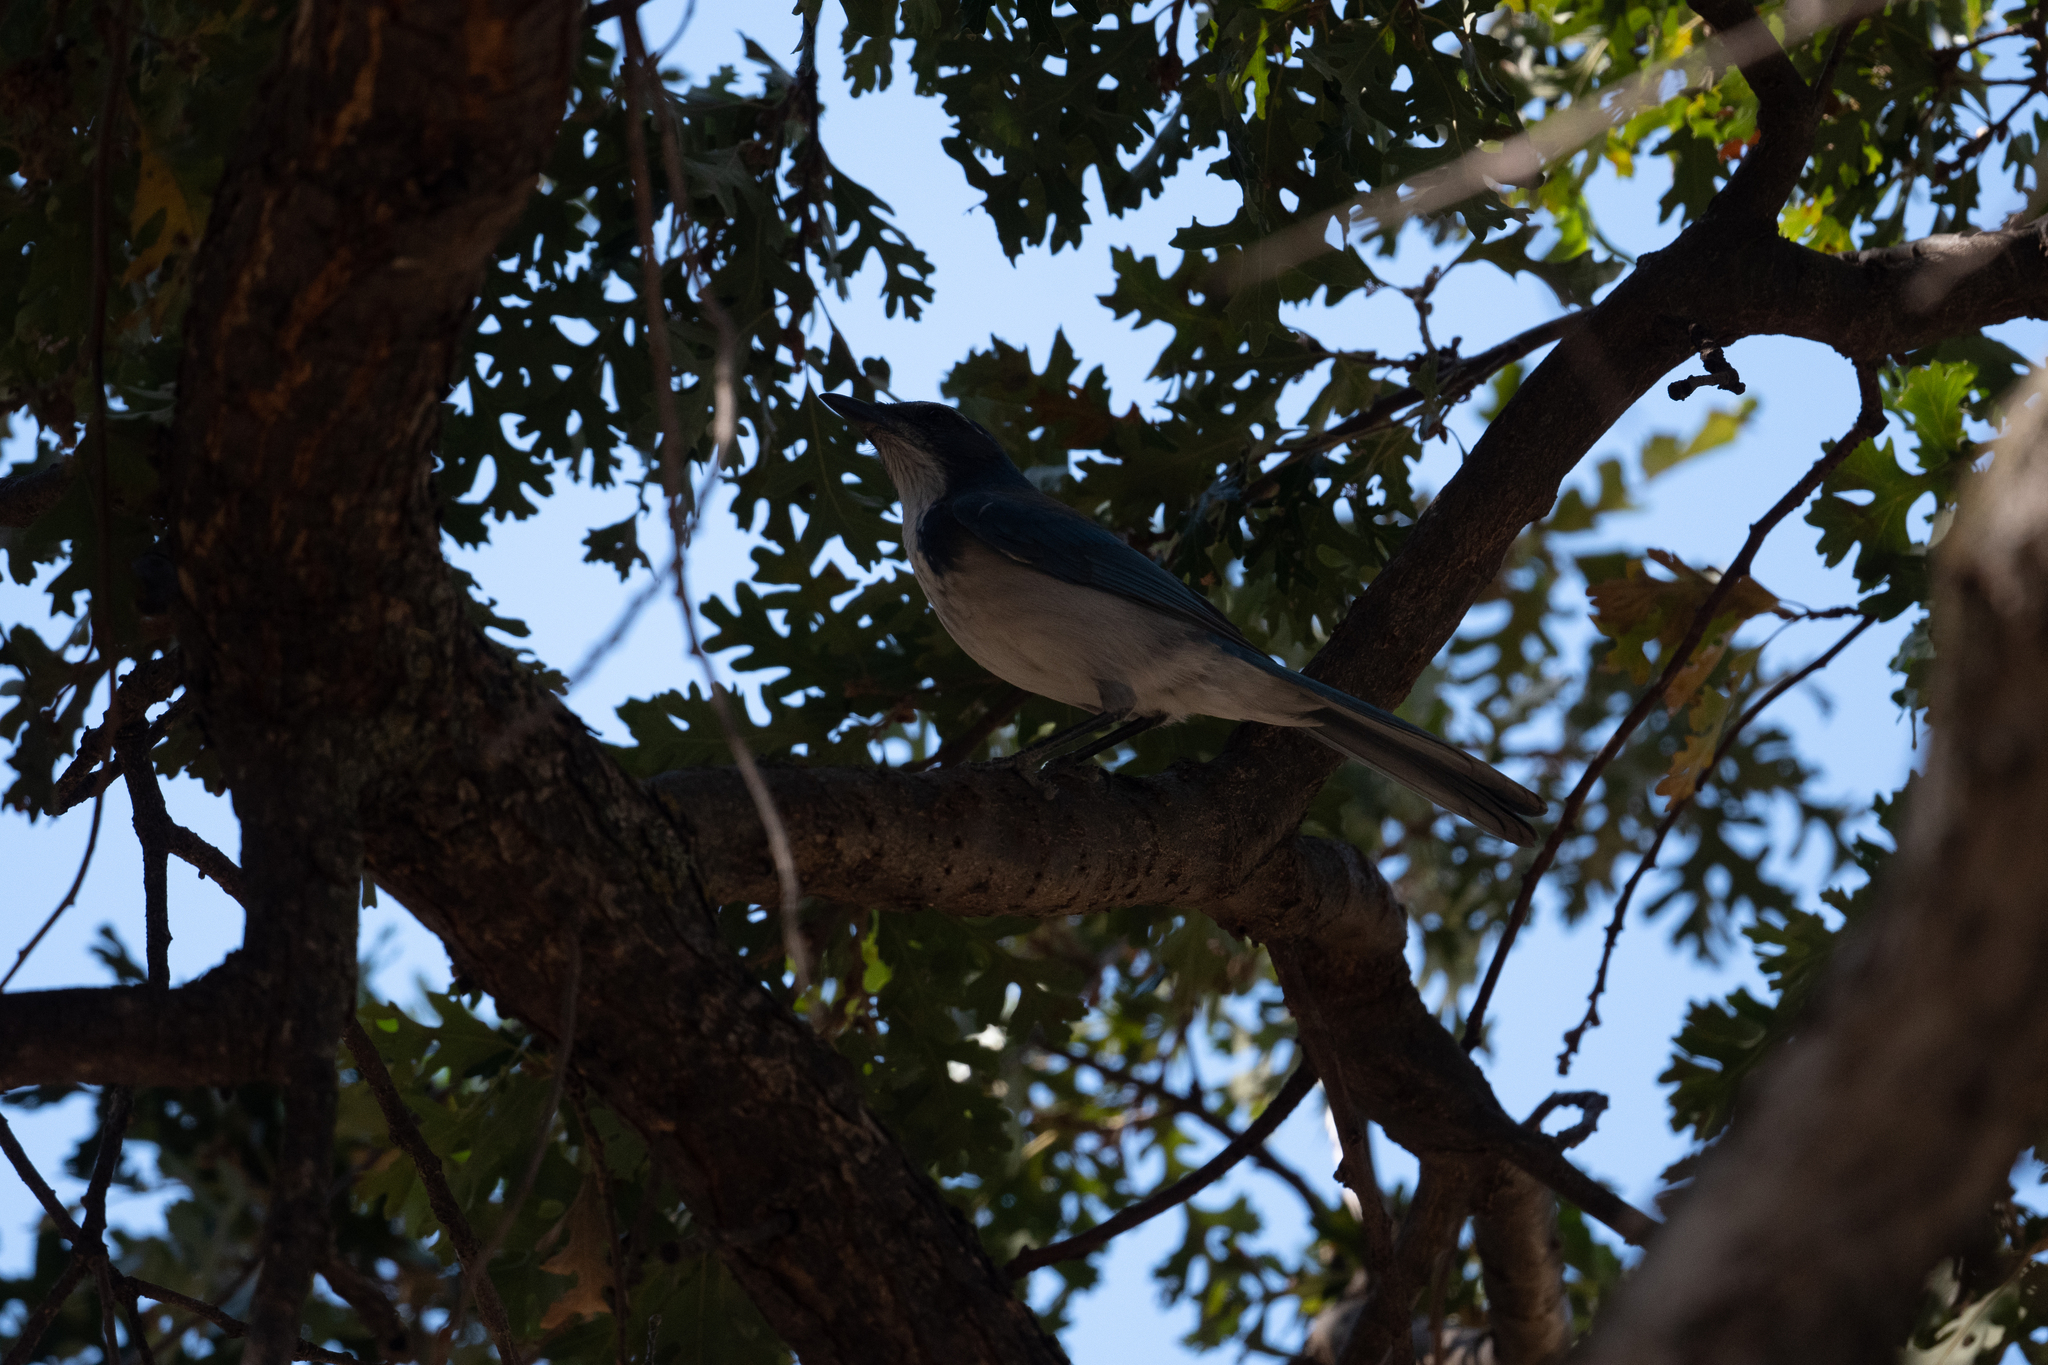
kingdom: Animalia
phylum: Chordata
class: Aves
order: Passeriformes
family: Corvidae
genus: Aphelocoma
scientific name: Aphelocoma californica
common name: California scrub-jay
